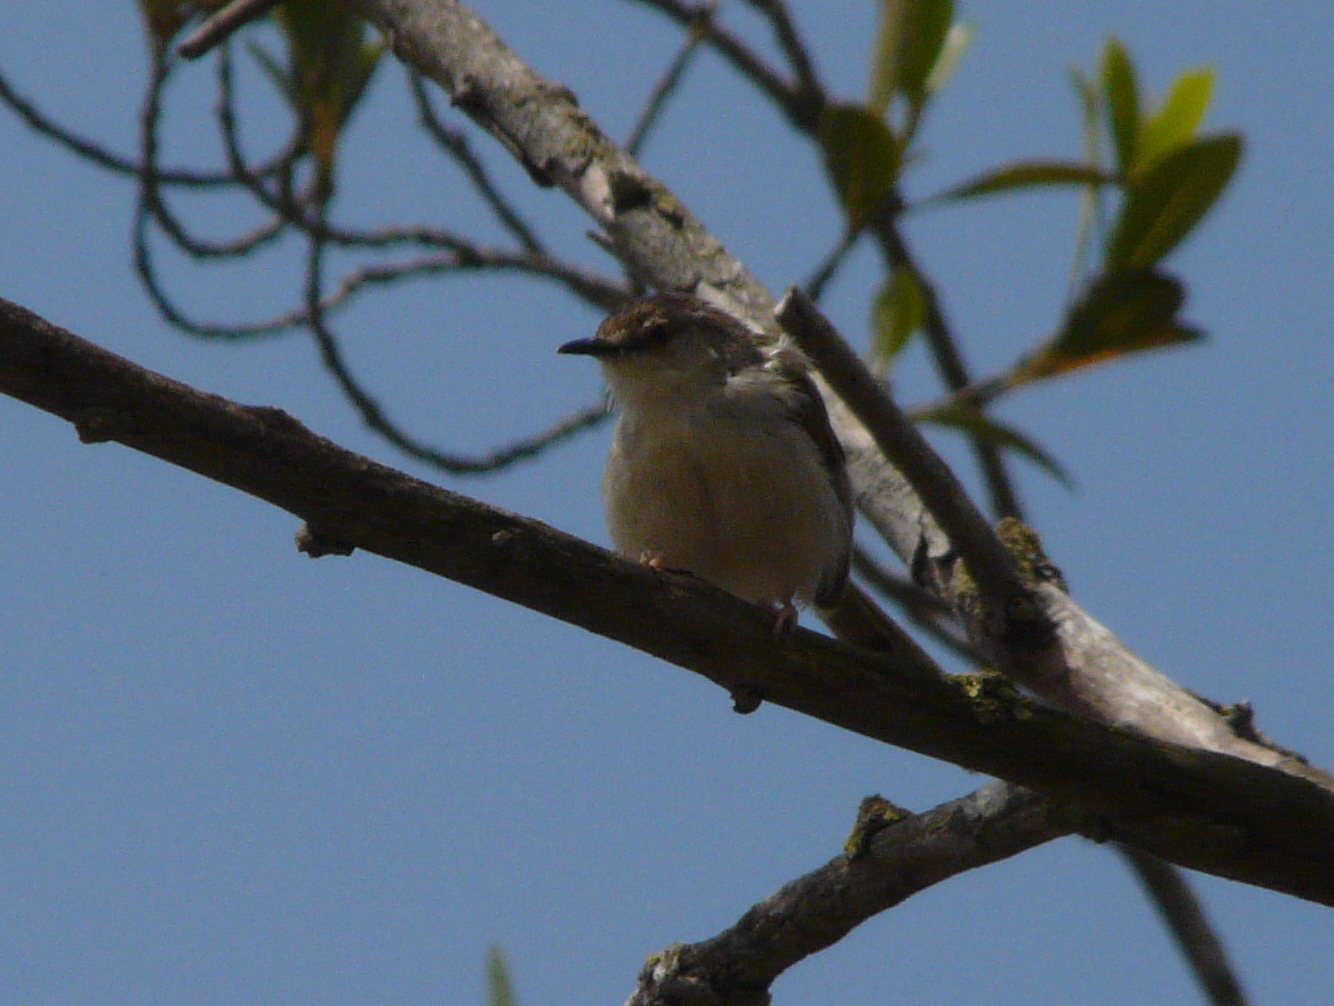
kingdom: Animalia
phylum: Chordata
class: Aves
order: Passeriformes
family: Cisticolidae
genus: Prinia
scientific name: Prinia gracilis
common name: Graceful prinia
